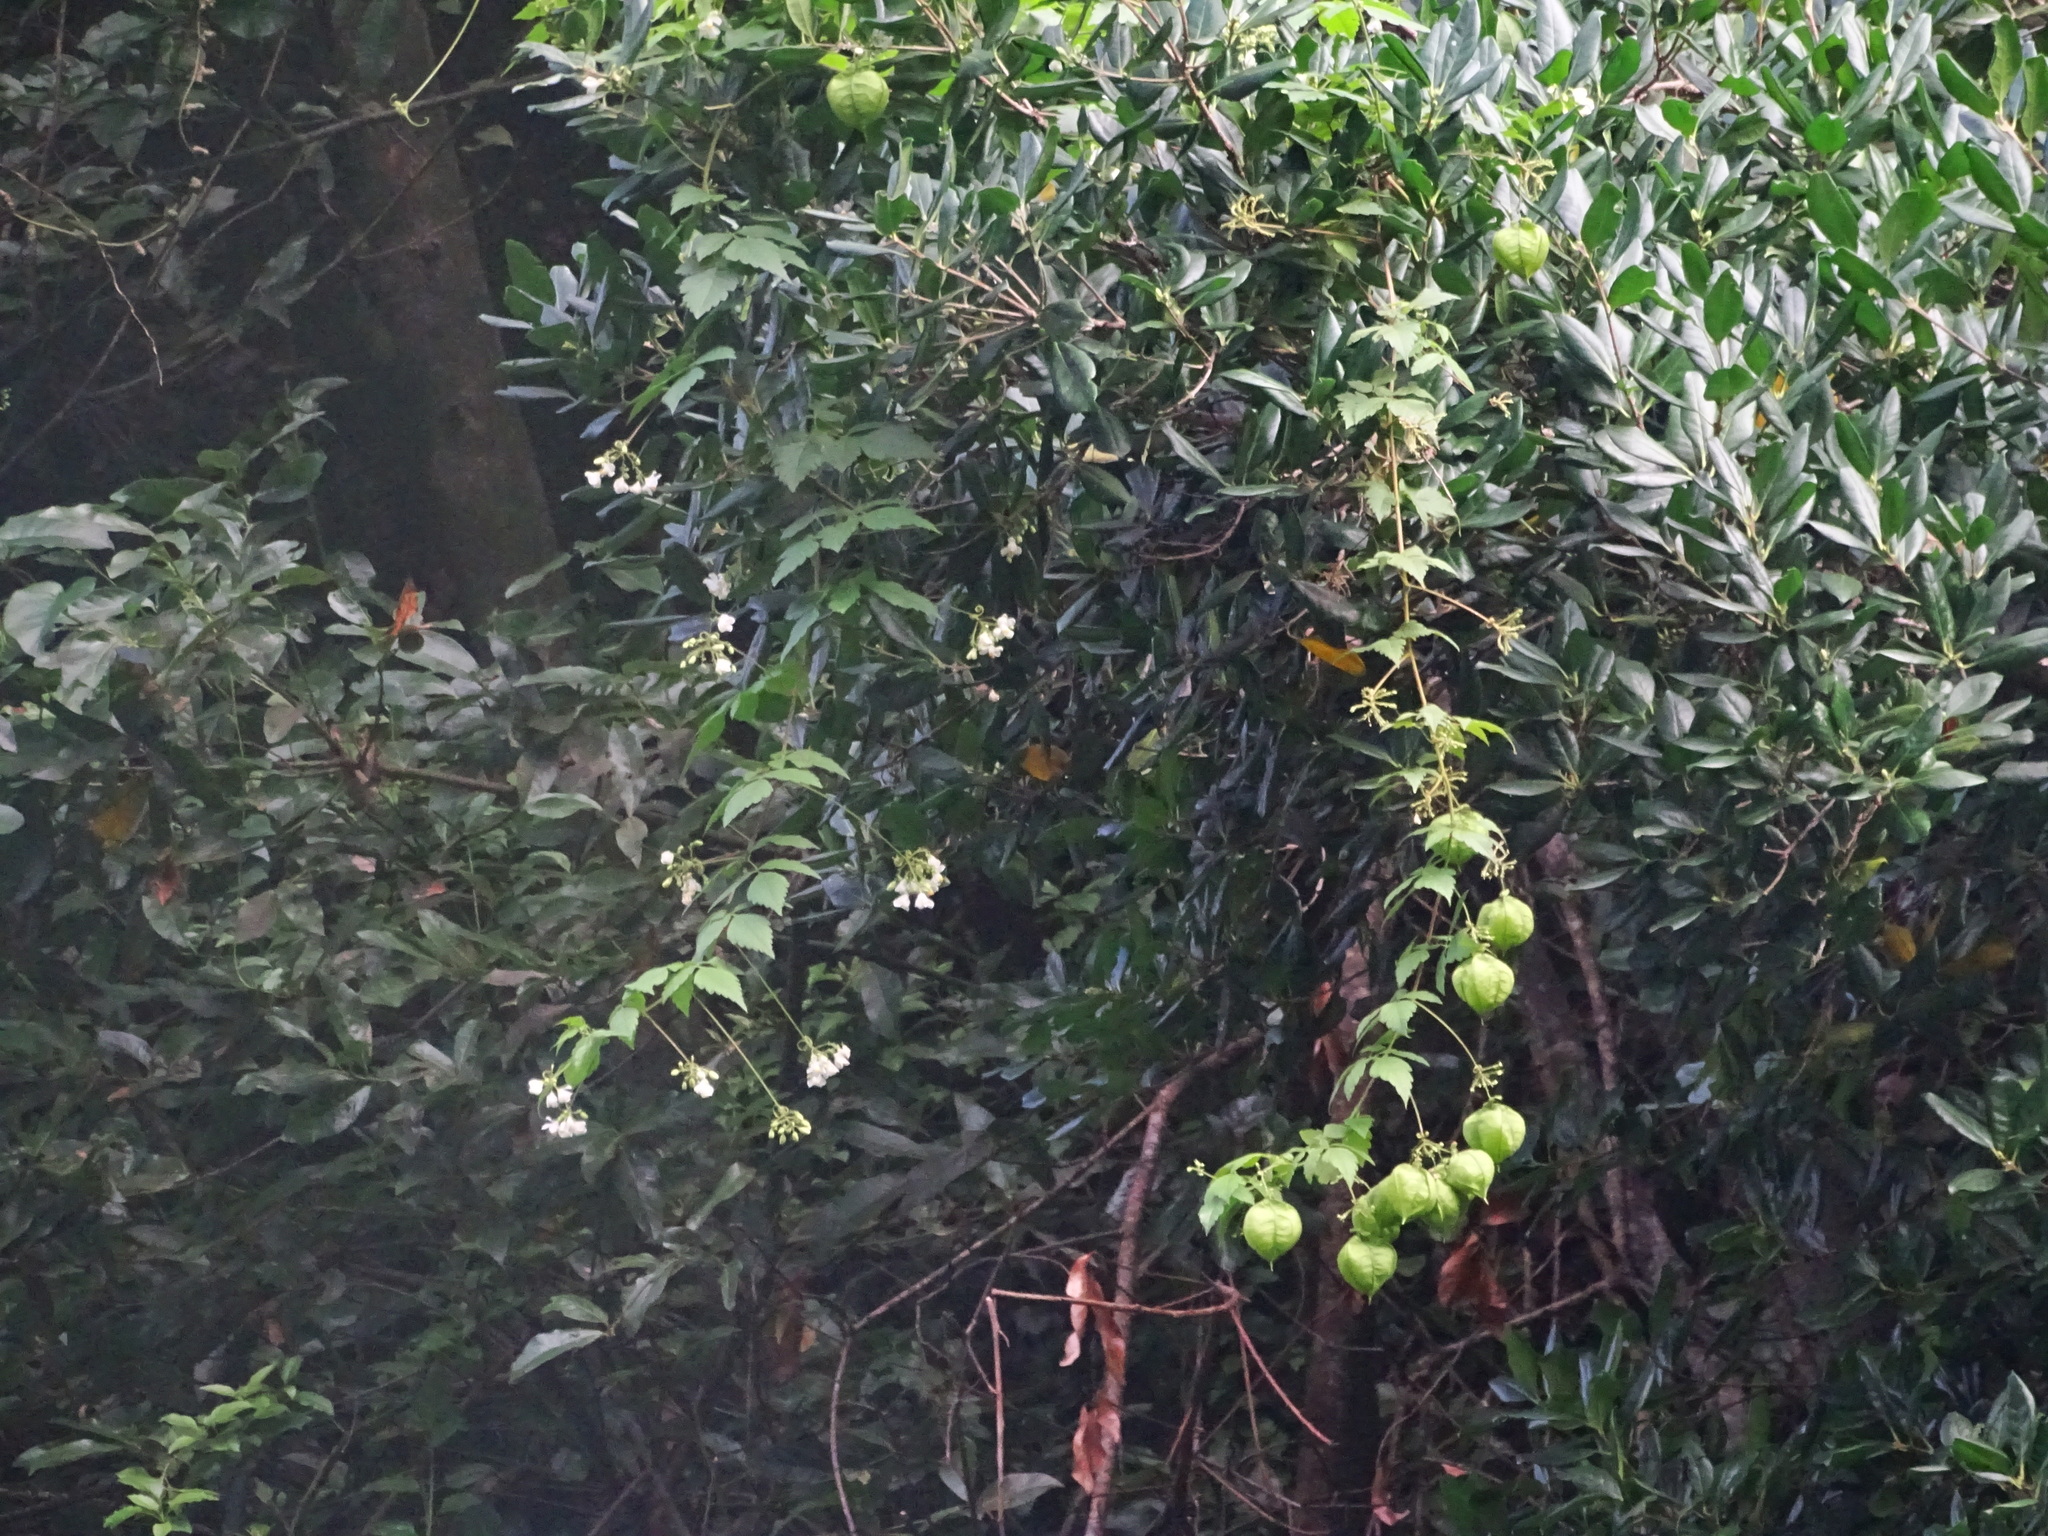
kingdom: Plantae
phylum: Tracheophyta
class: Magnoliopsida
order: Sapindales
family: Sapindaceae
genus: Cardiospermum
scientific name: Cardiospermum grandiflorum
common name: Balloon vine
